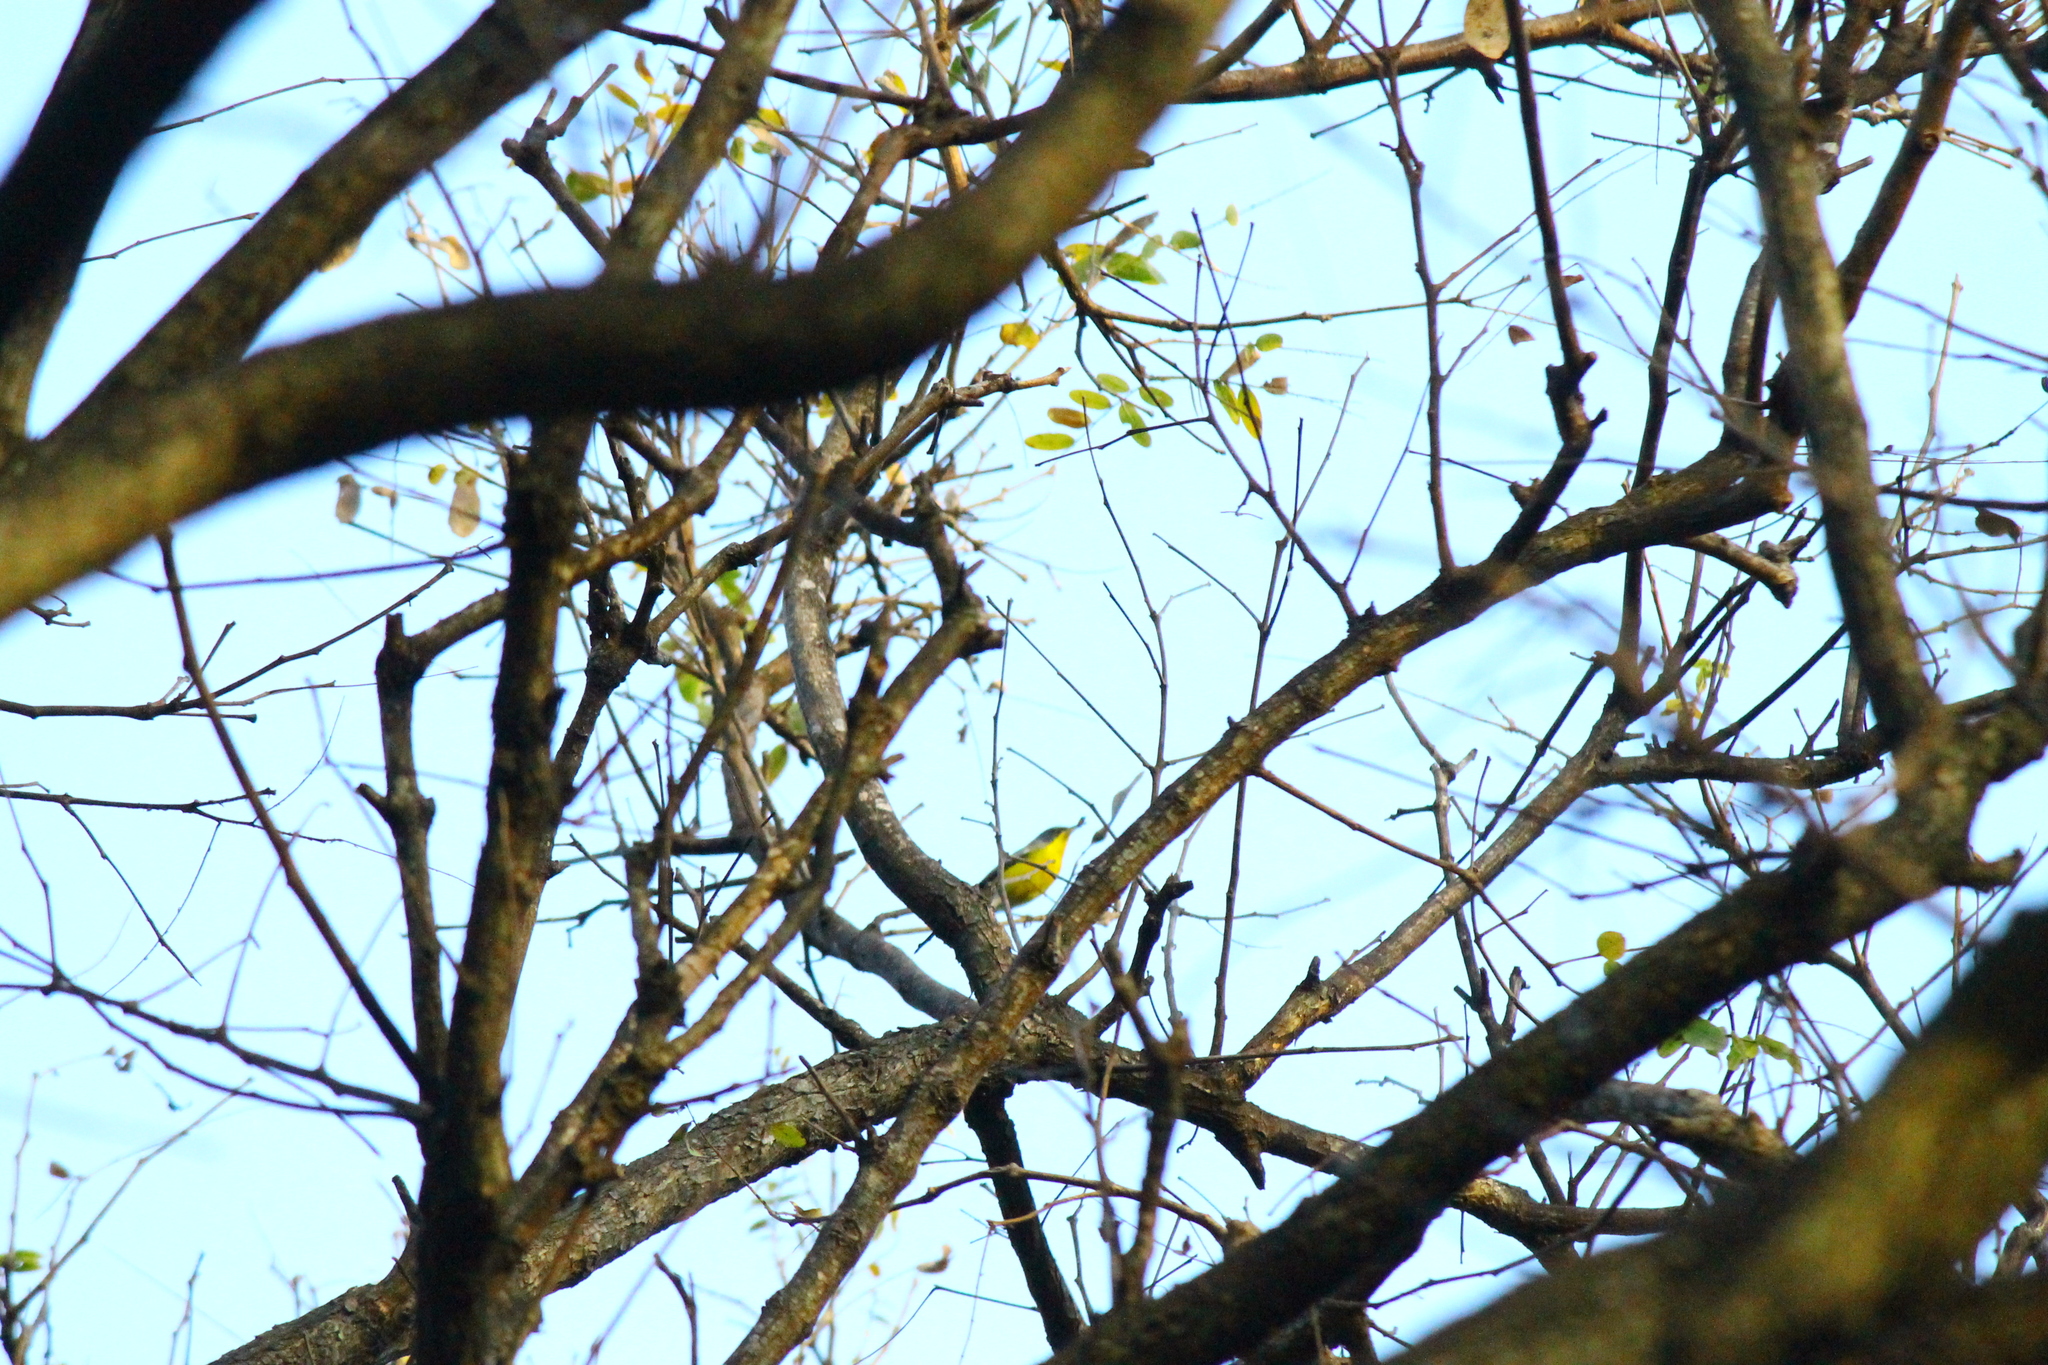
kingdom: Animalia
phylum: Chordata
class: Aves
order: Passeriformes
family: Parulidae
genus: Setophaga
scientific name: Setophaga pitiayumi
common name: Tropical parula
